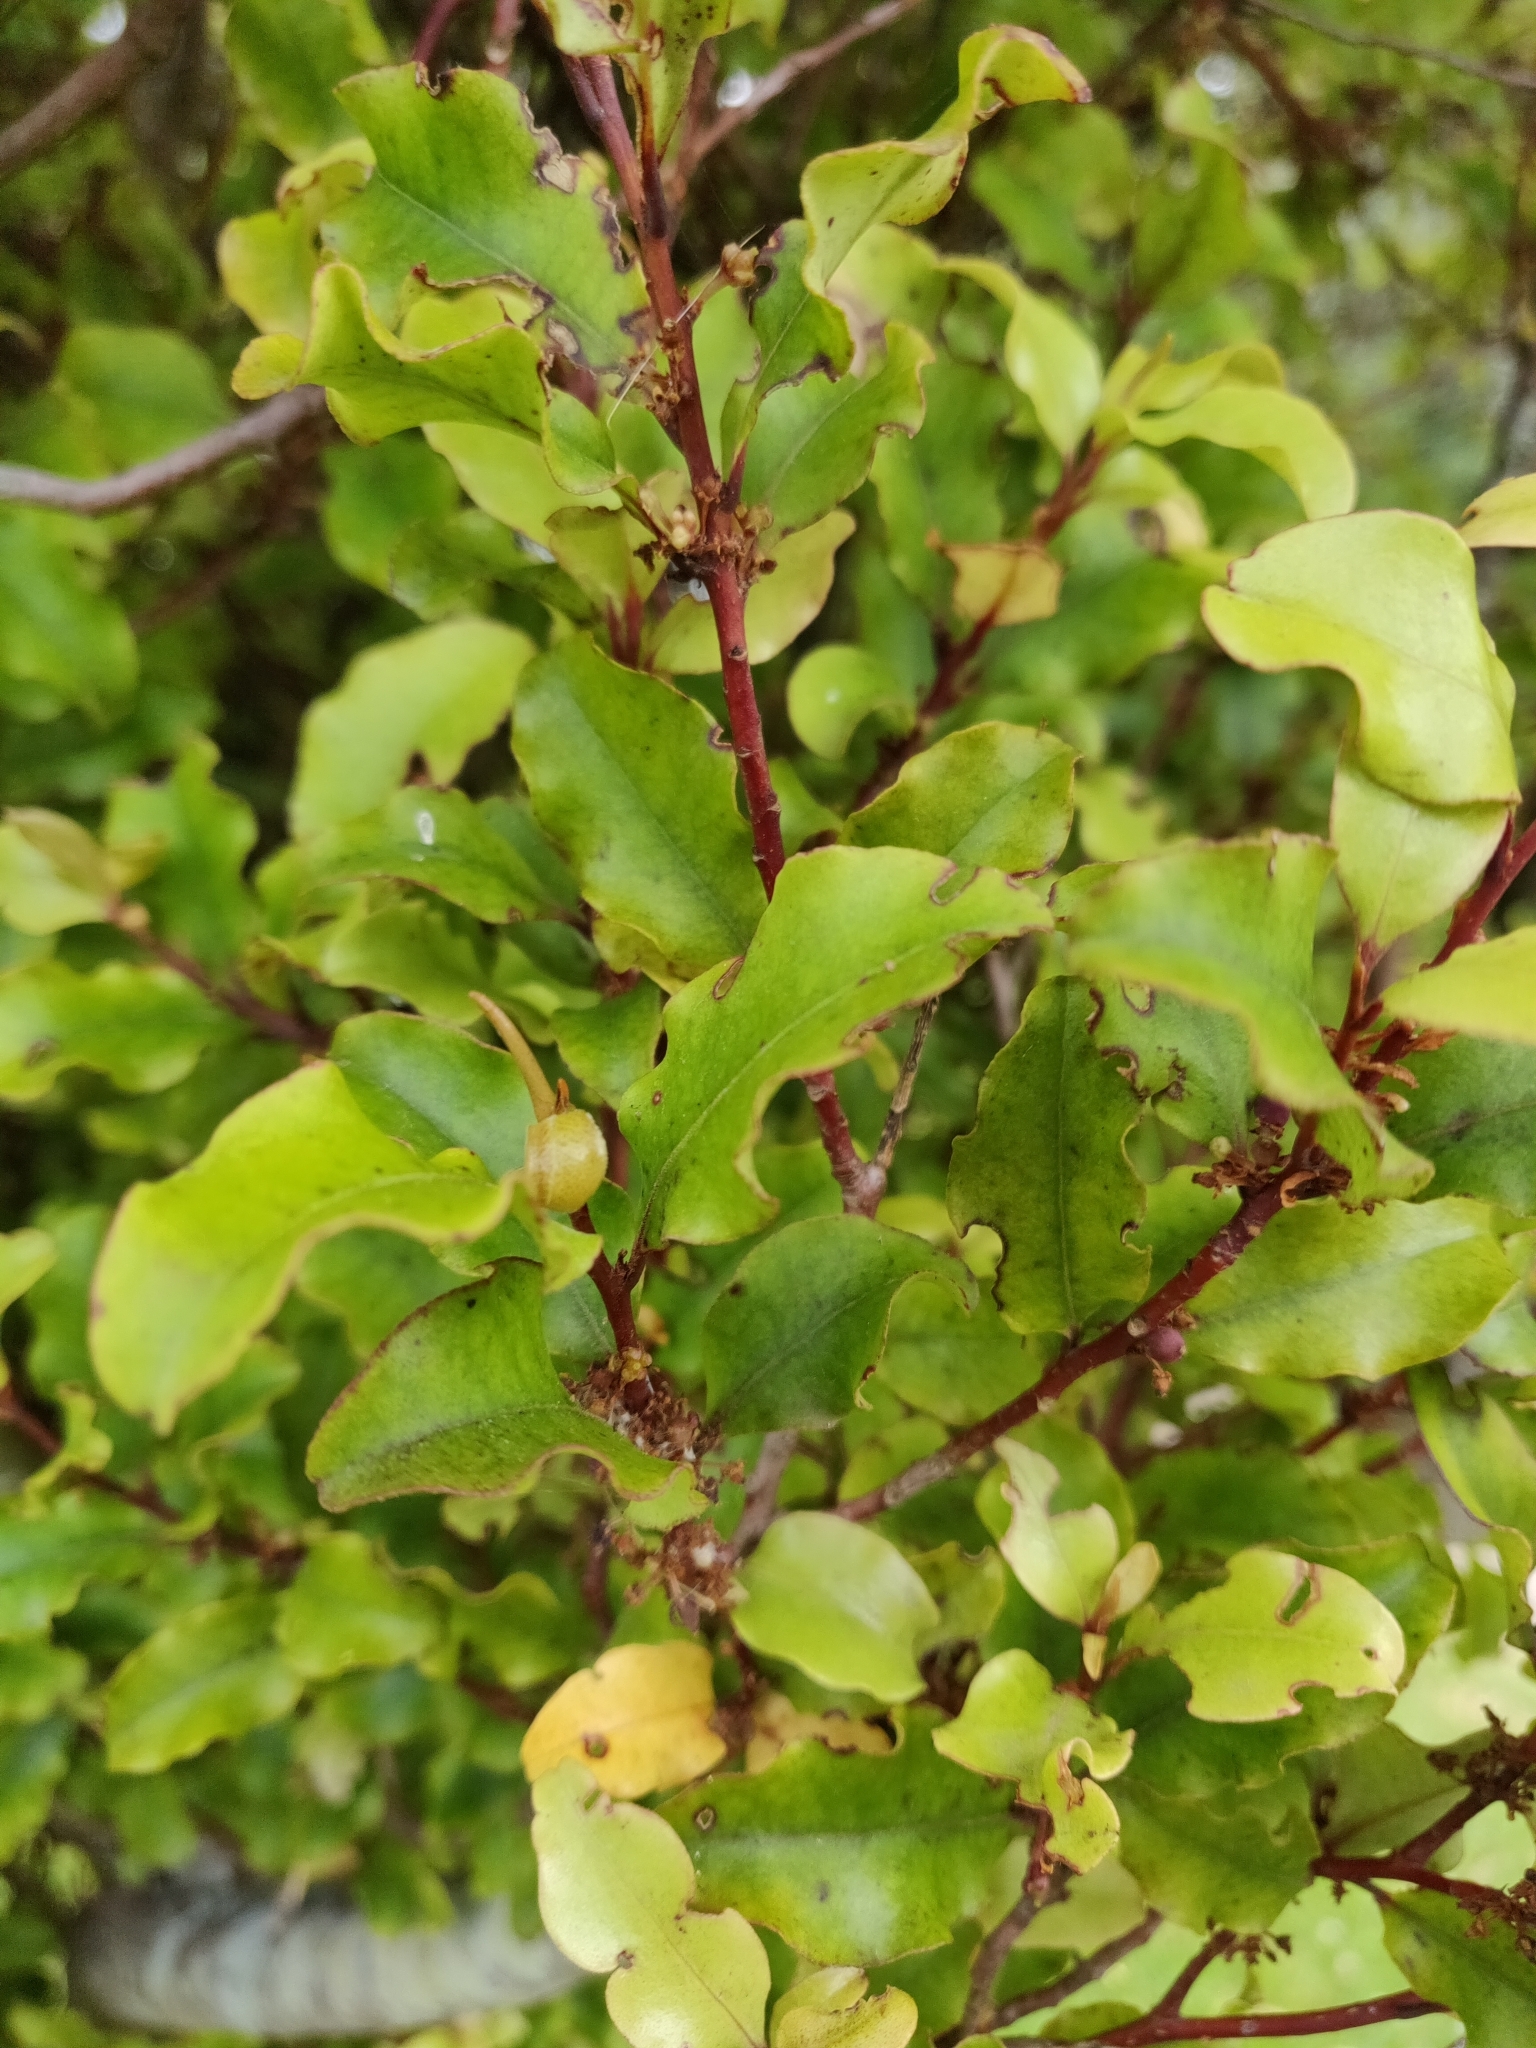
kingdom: Plantae
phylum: Tracheophyta
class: Magnoliopsida
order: Ericales
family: Primulaceae
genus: Myrsine
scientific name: Myrsine australis
